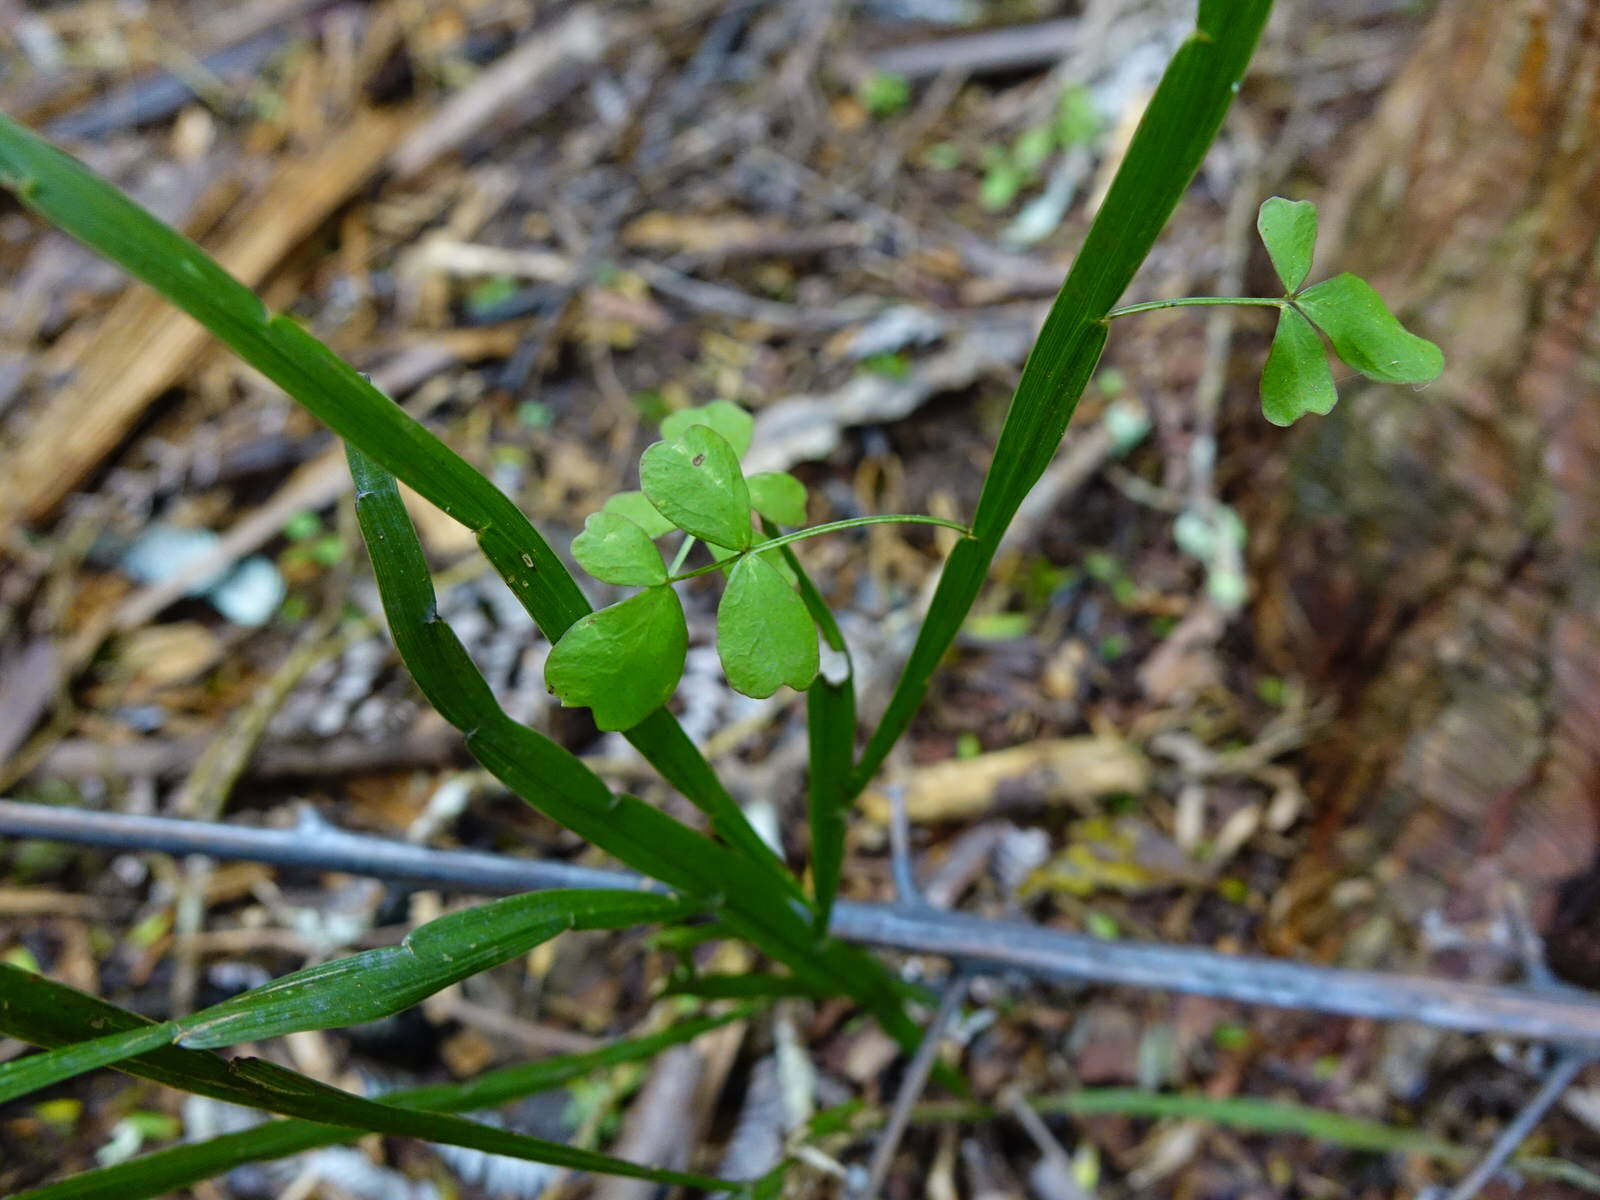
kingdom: Plantae
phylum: Tracheophyta
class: Magnoliopsida
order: Fabales
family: Fabaceae
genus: Carmichaelia
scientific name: Carmichaelia australis
